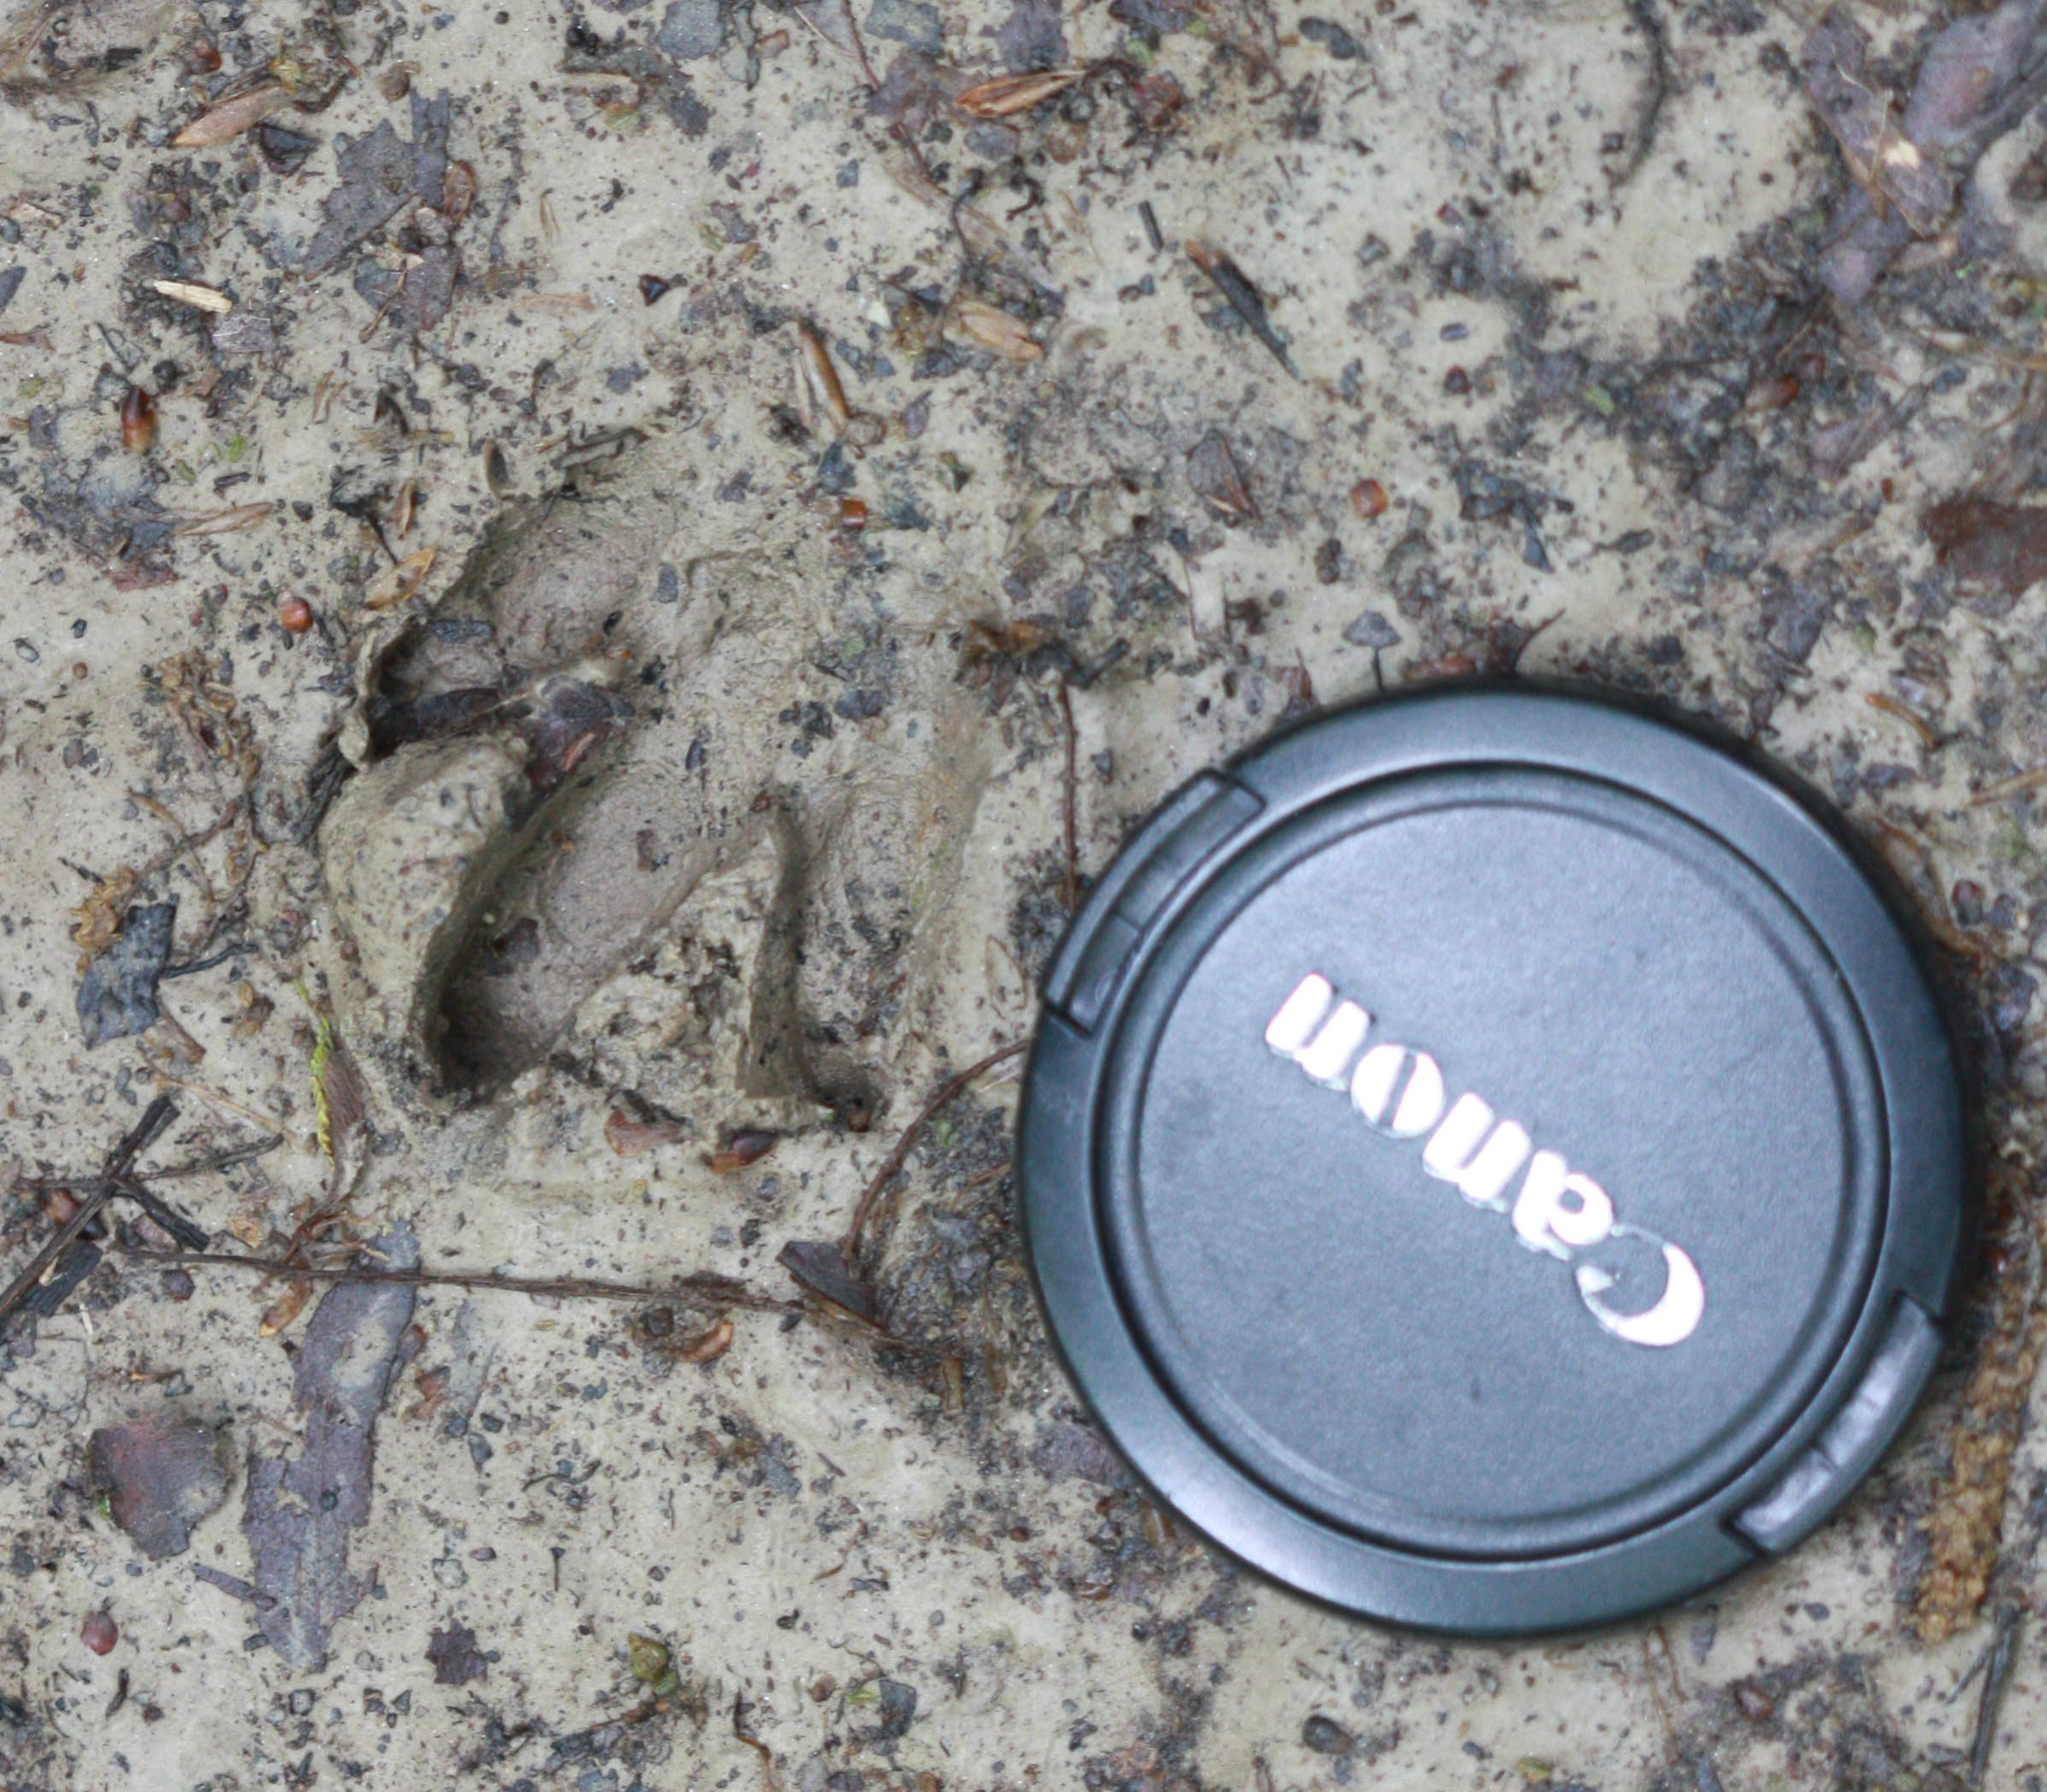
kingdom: Animalia
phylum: Chordata
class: Mammalia
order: Cingulata
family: Dasypodidae
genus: Dasypus
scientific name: Dasypus novemcinctus
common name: Nine-banded armadillo
